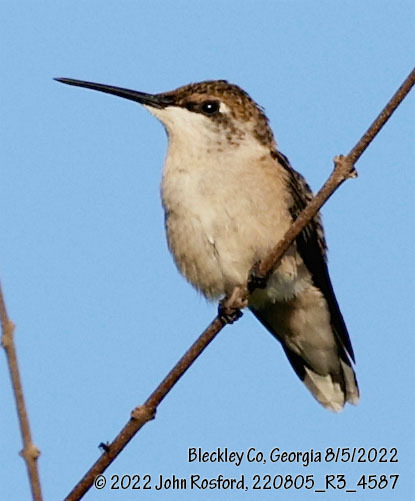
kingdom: Animalia
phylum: Chordata
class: Aves
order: Apodiformes
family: Trochilidae
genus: Archilochus
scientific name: Archilochus colubris
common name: Ruby-throated hummingbird
